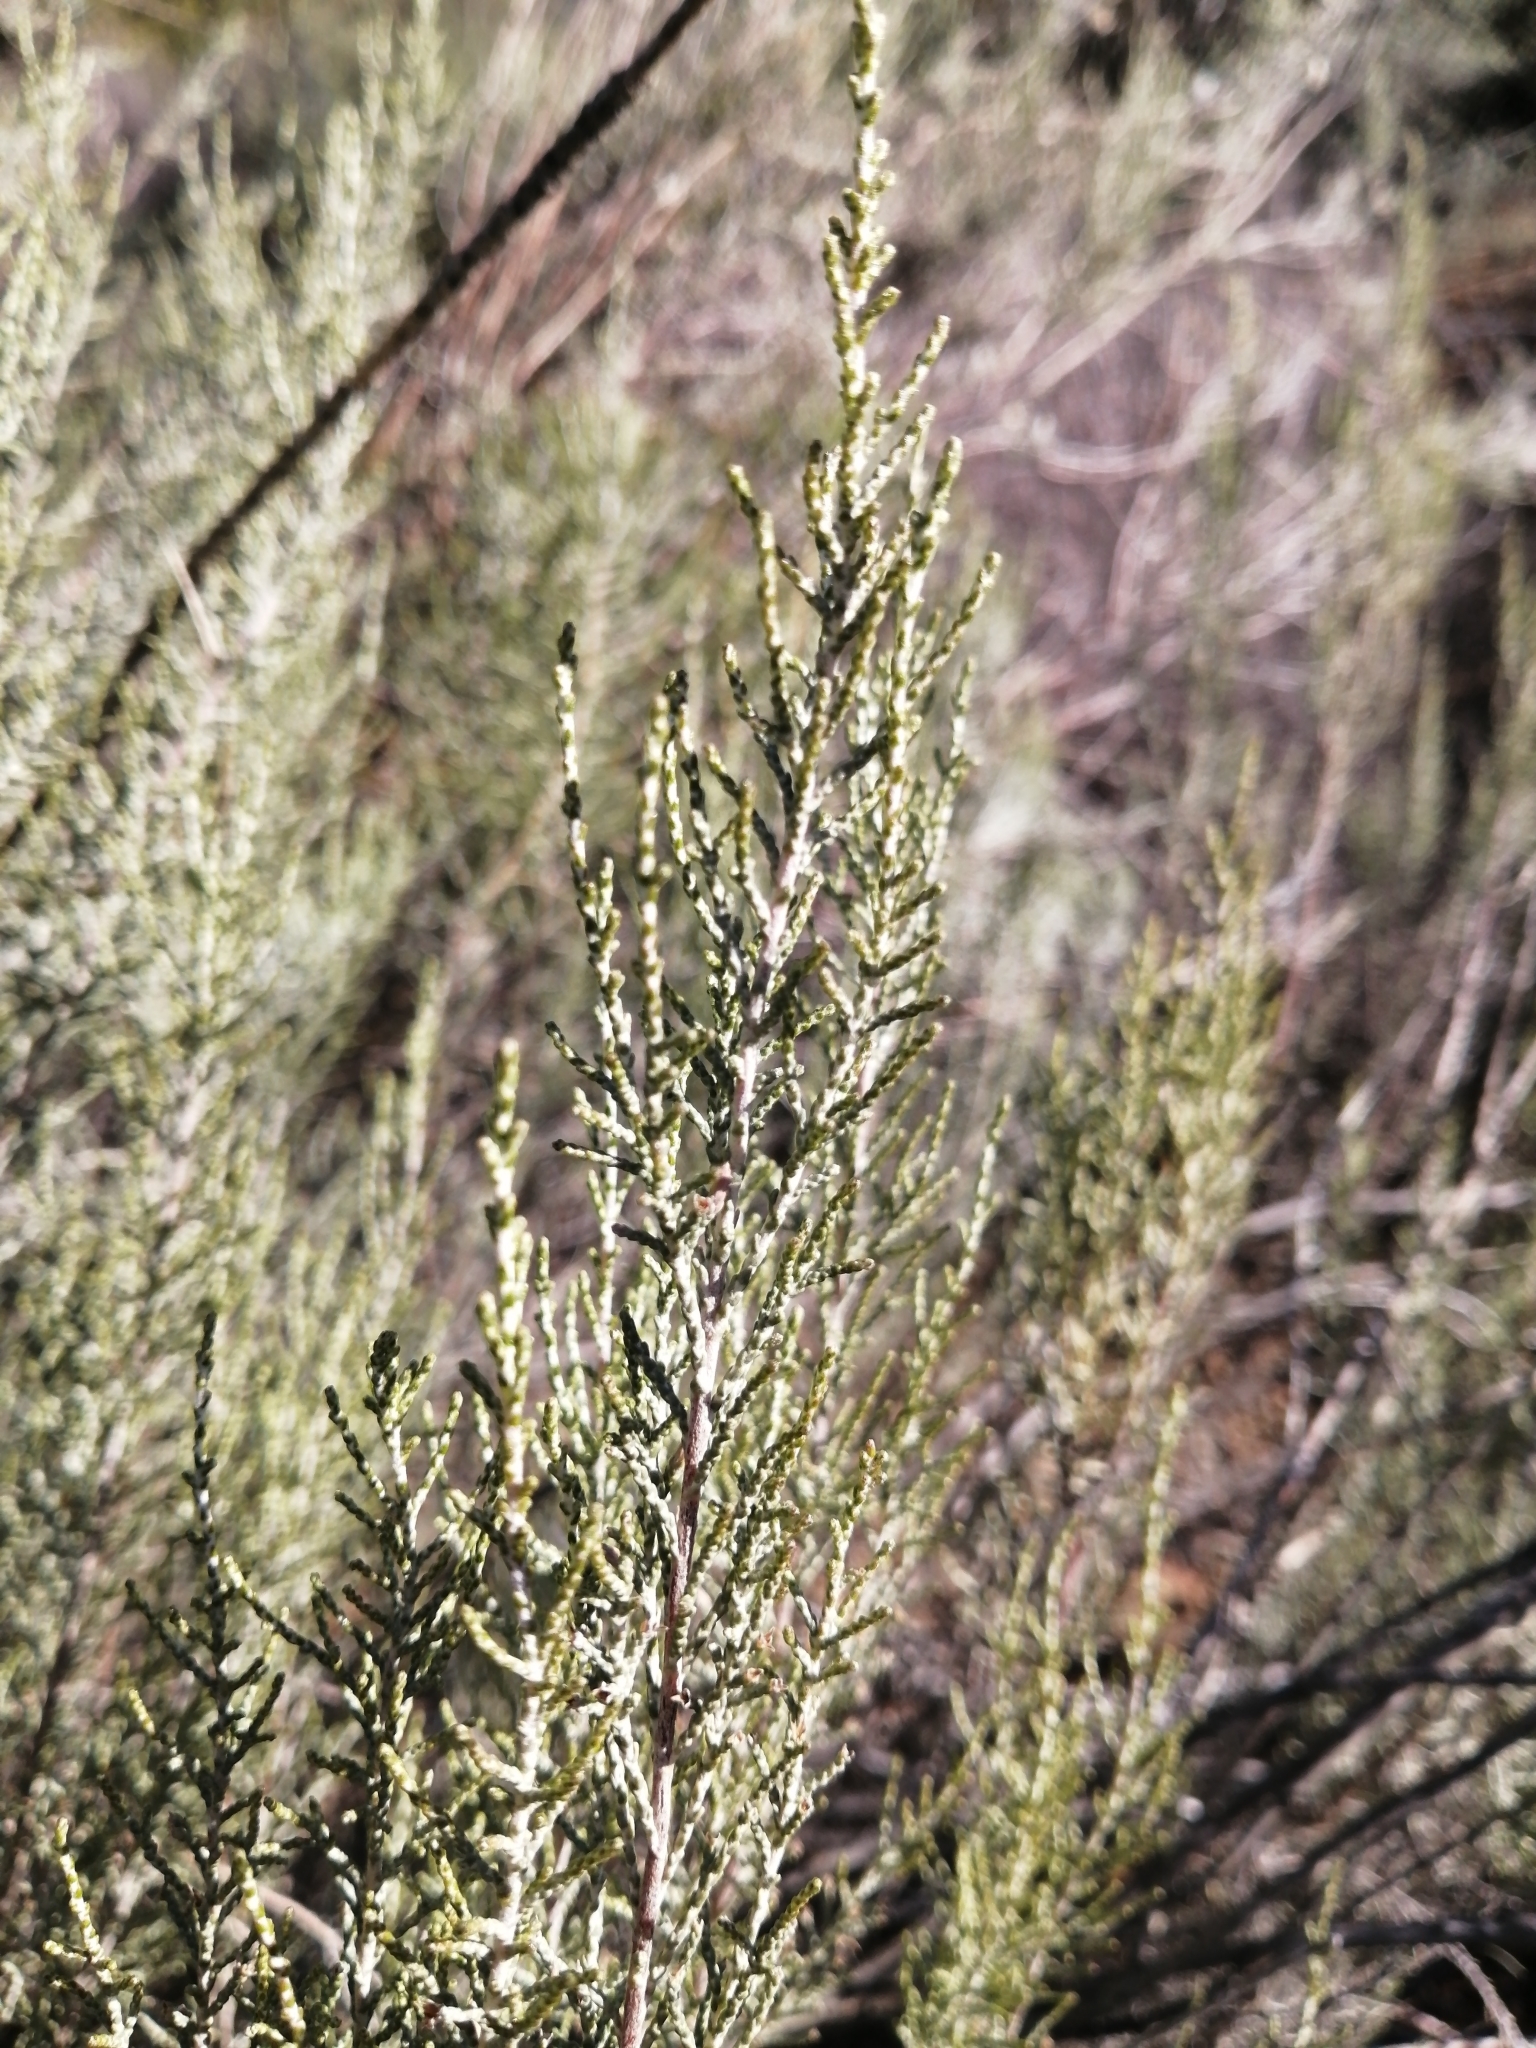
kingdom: Plantae
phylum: Tracheophyta
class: Magnoliopsida
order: Asterales
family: Asteraceae
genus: Dicerothamnus
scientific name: Dicerothamnus rhinocerotis
